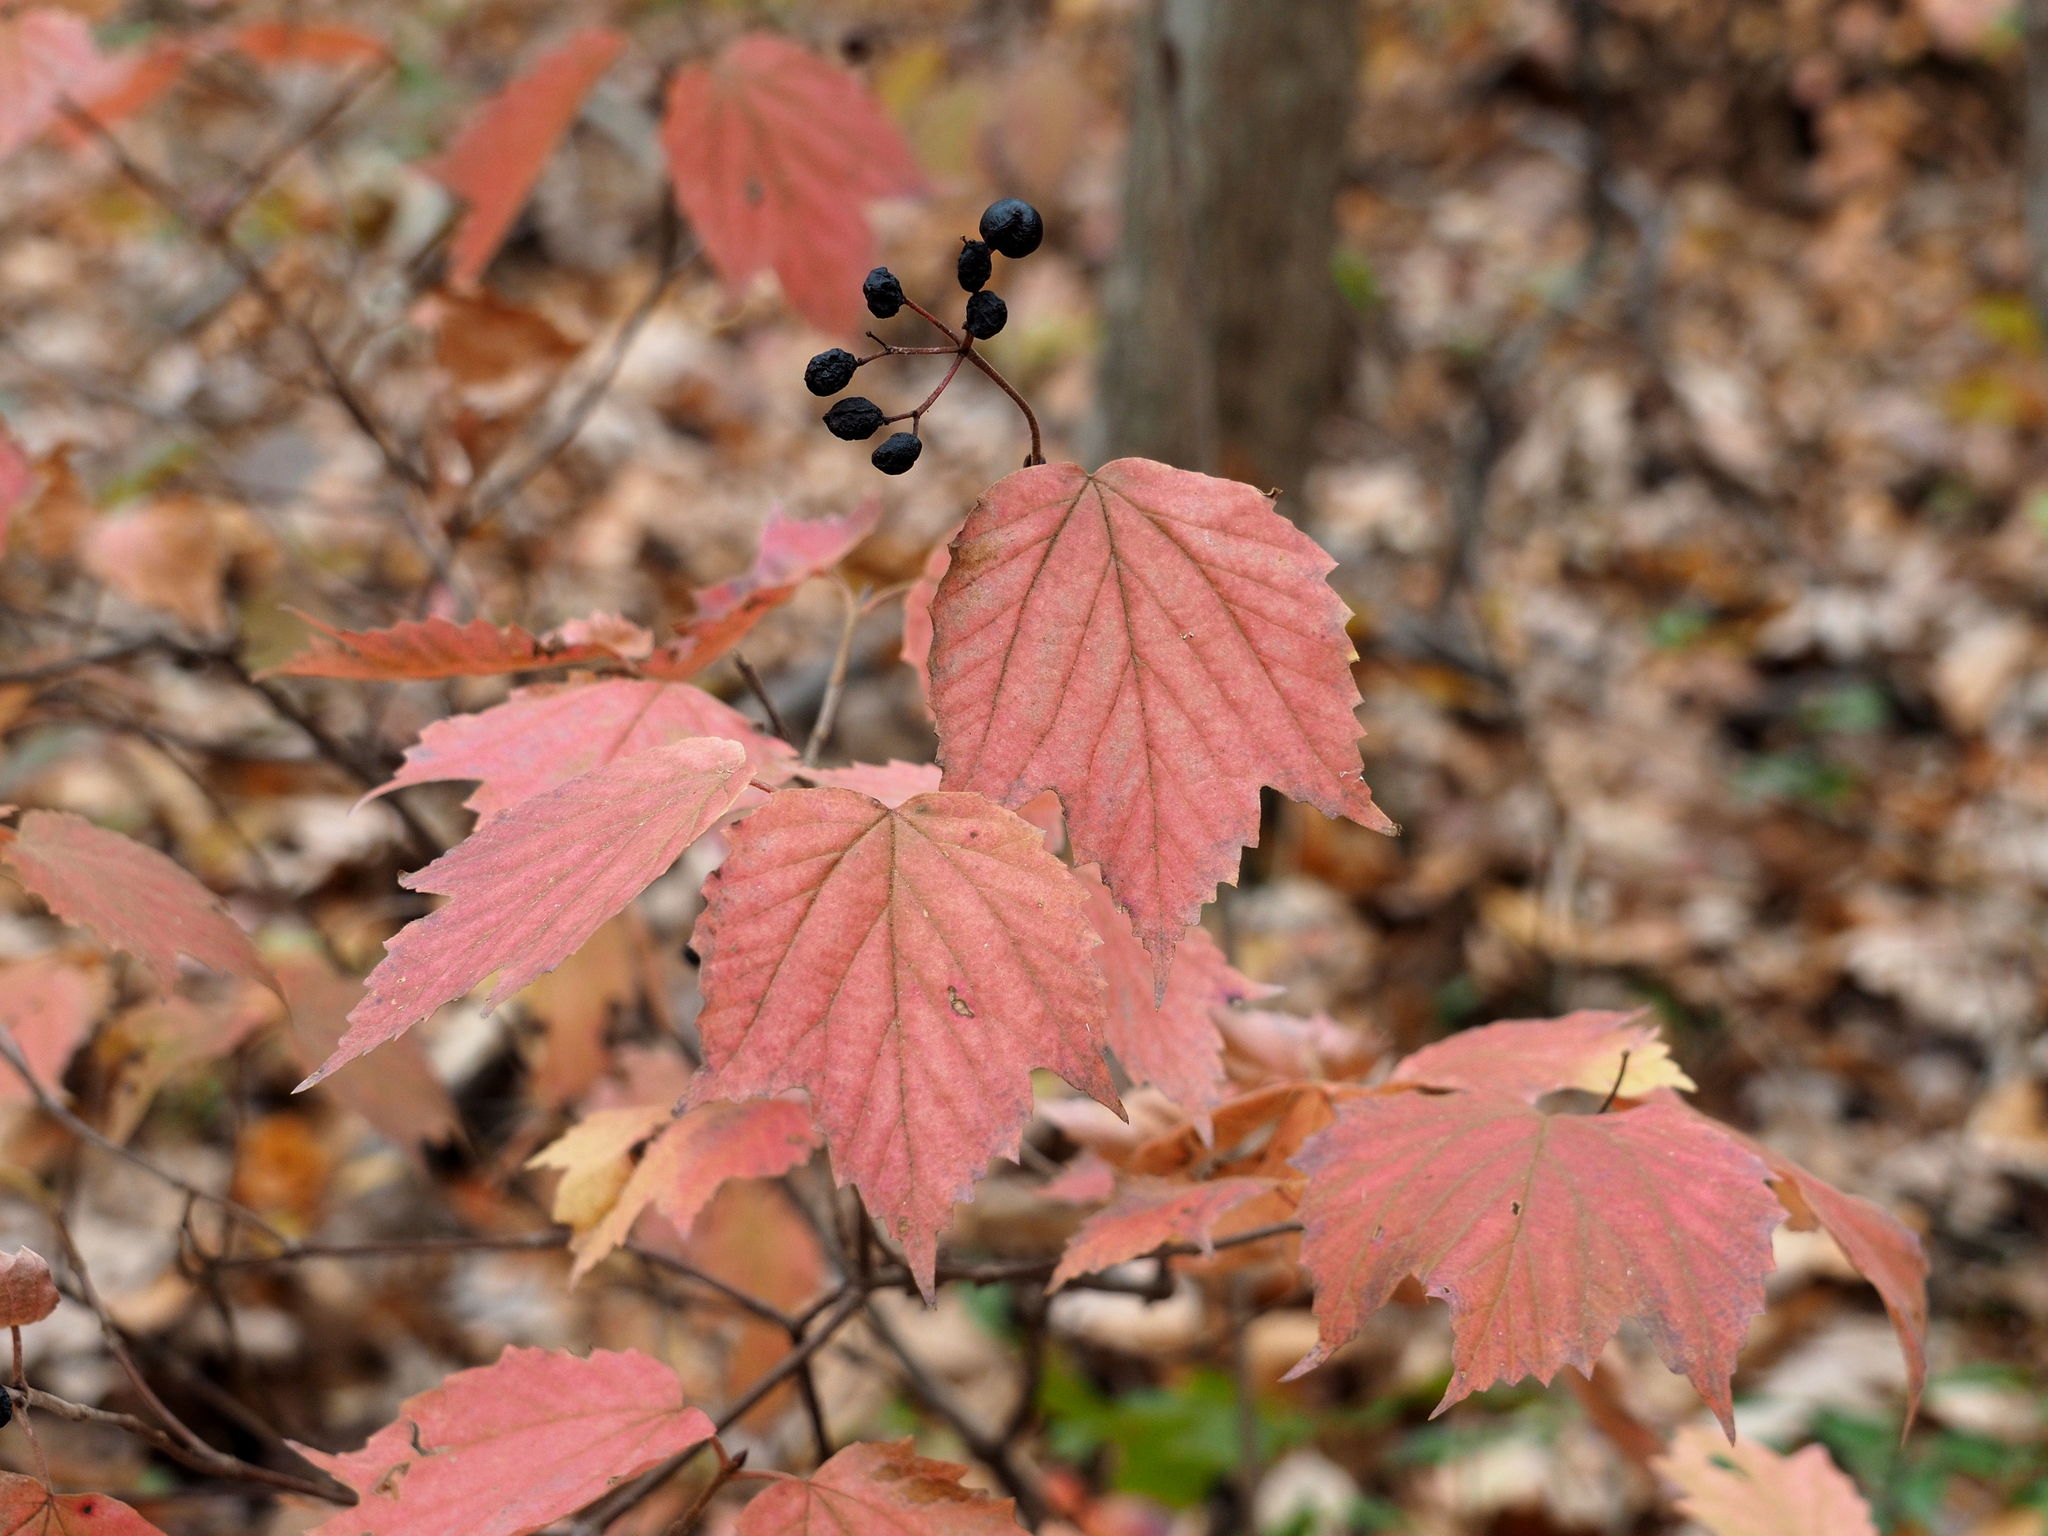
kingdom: Plantae
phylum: Tracheophyta
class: Magnoliopsida
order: Dipsacales
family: Viburnaceae
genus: Viburnum
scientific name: Viburnum acerifolium
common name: Dockmackie
